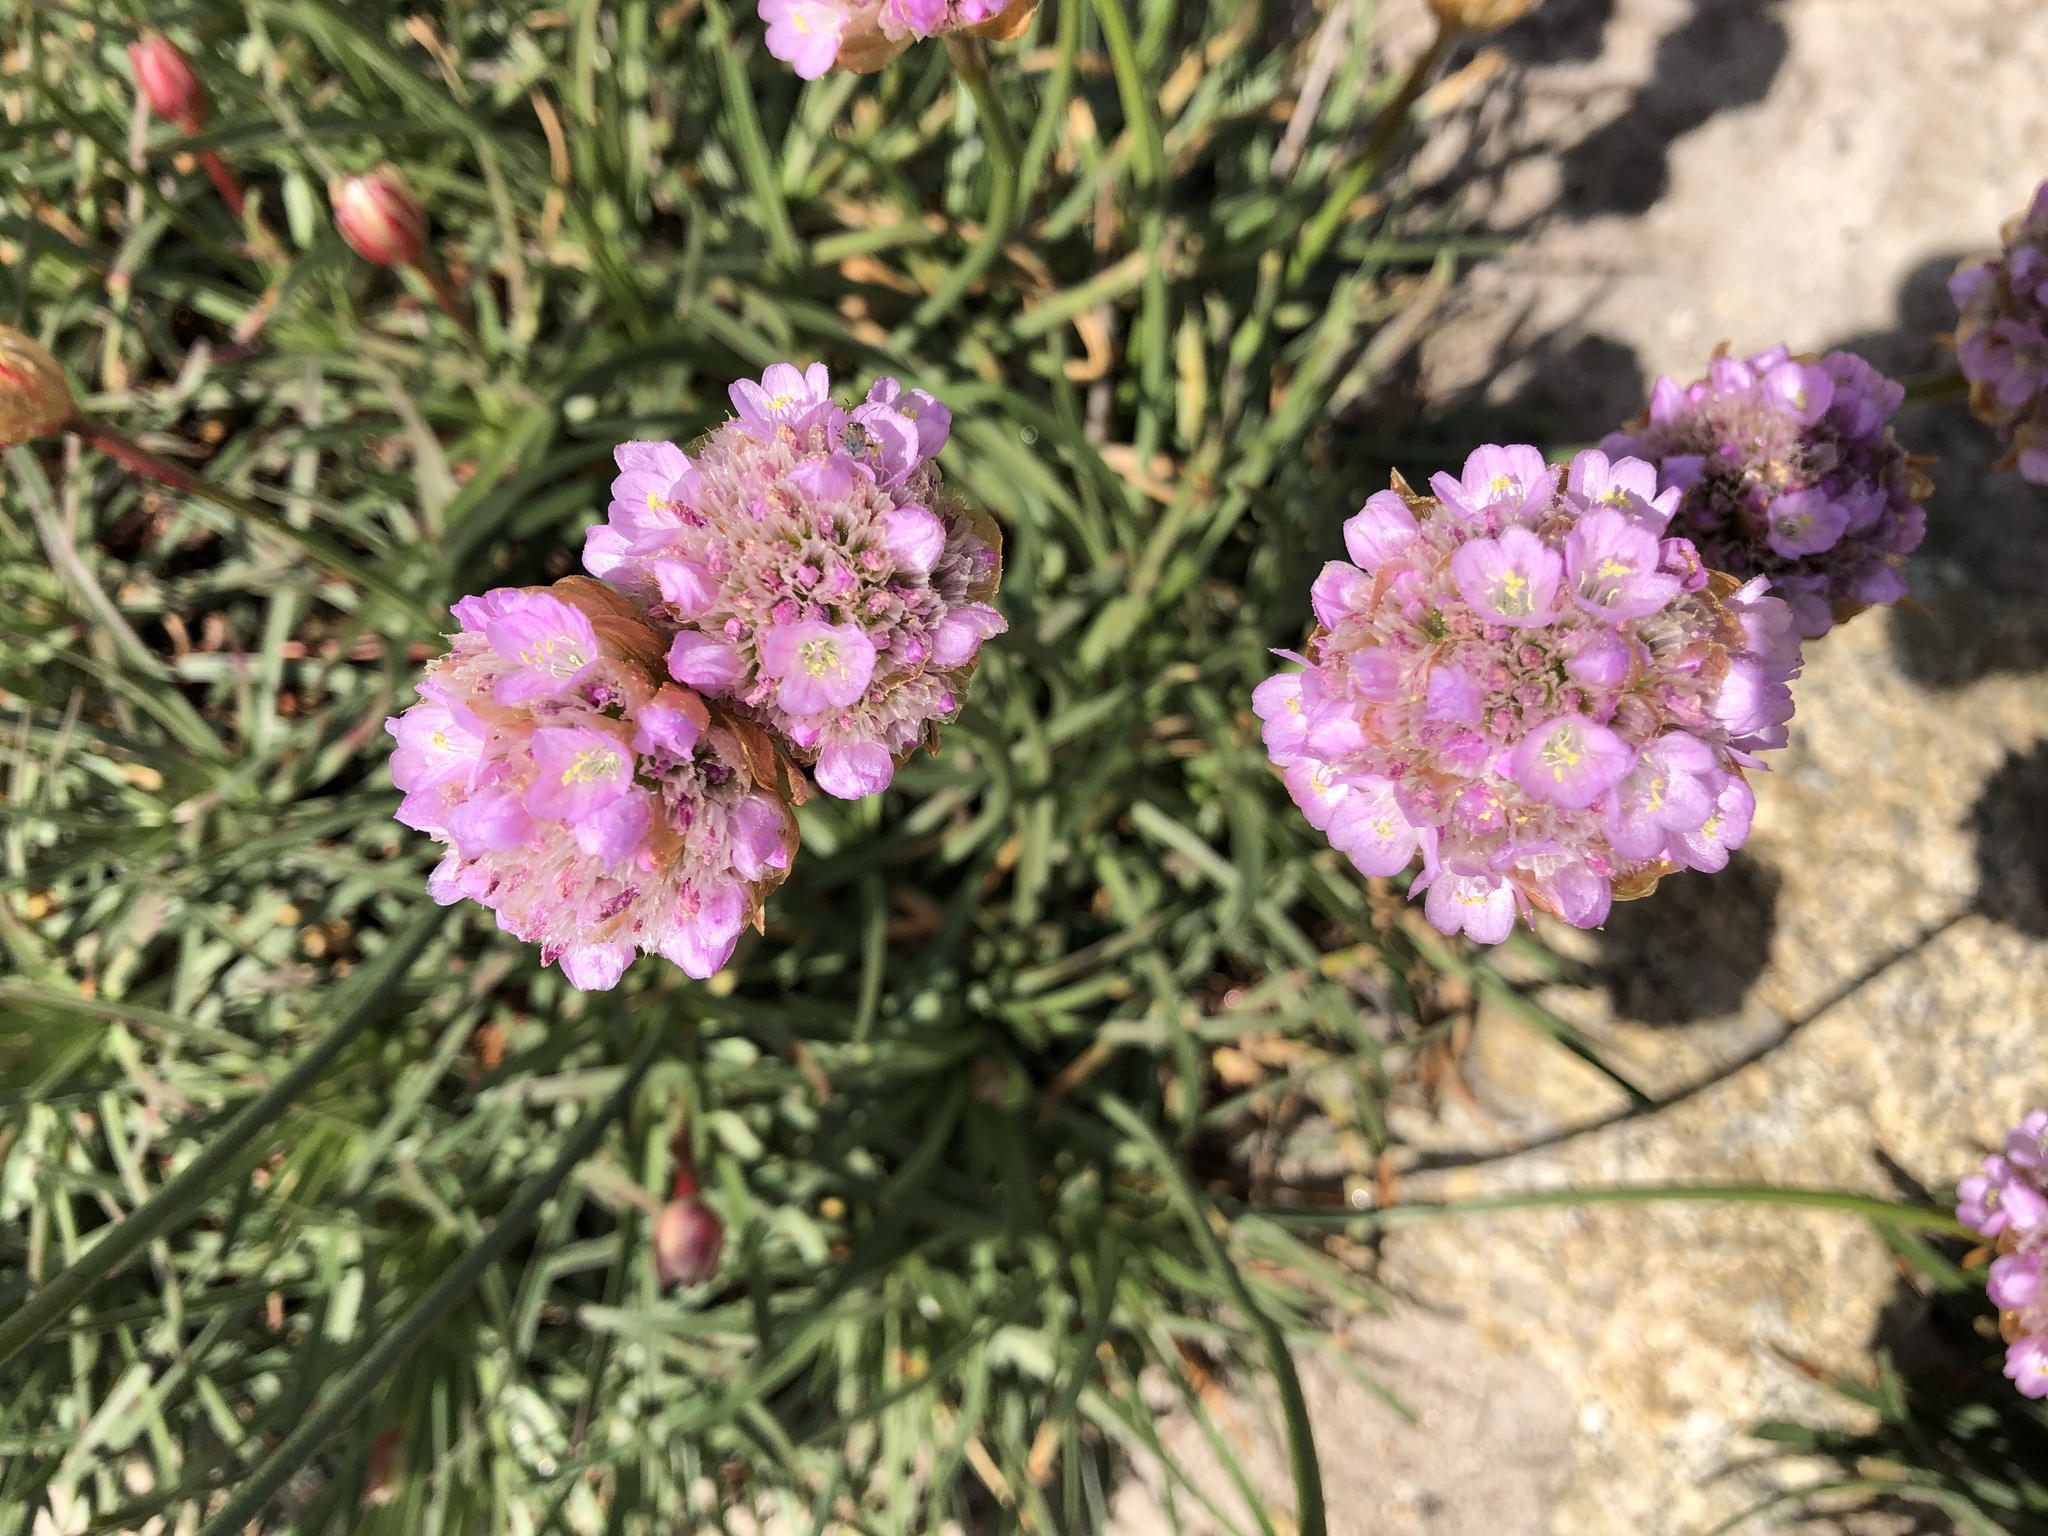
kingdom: Plantae
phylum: Tracheophyta
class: Magnoliopsida
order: Caryophyllales
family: Plumbaginaceae
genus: Armeria
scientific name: Armeria maritima
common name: Thrift
